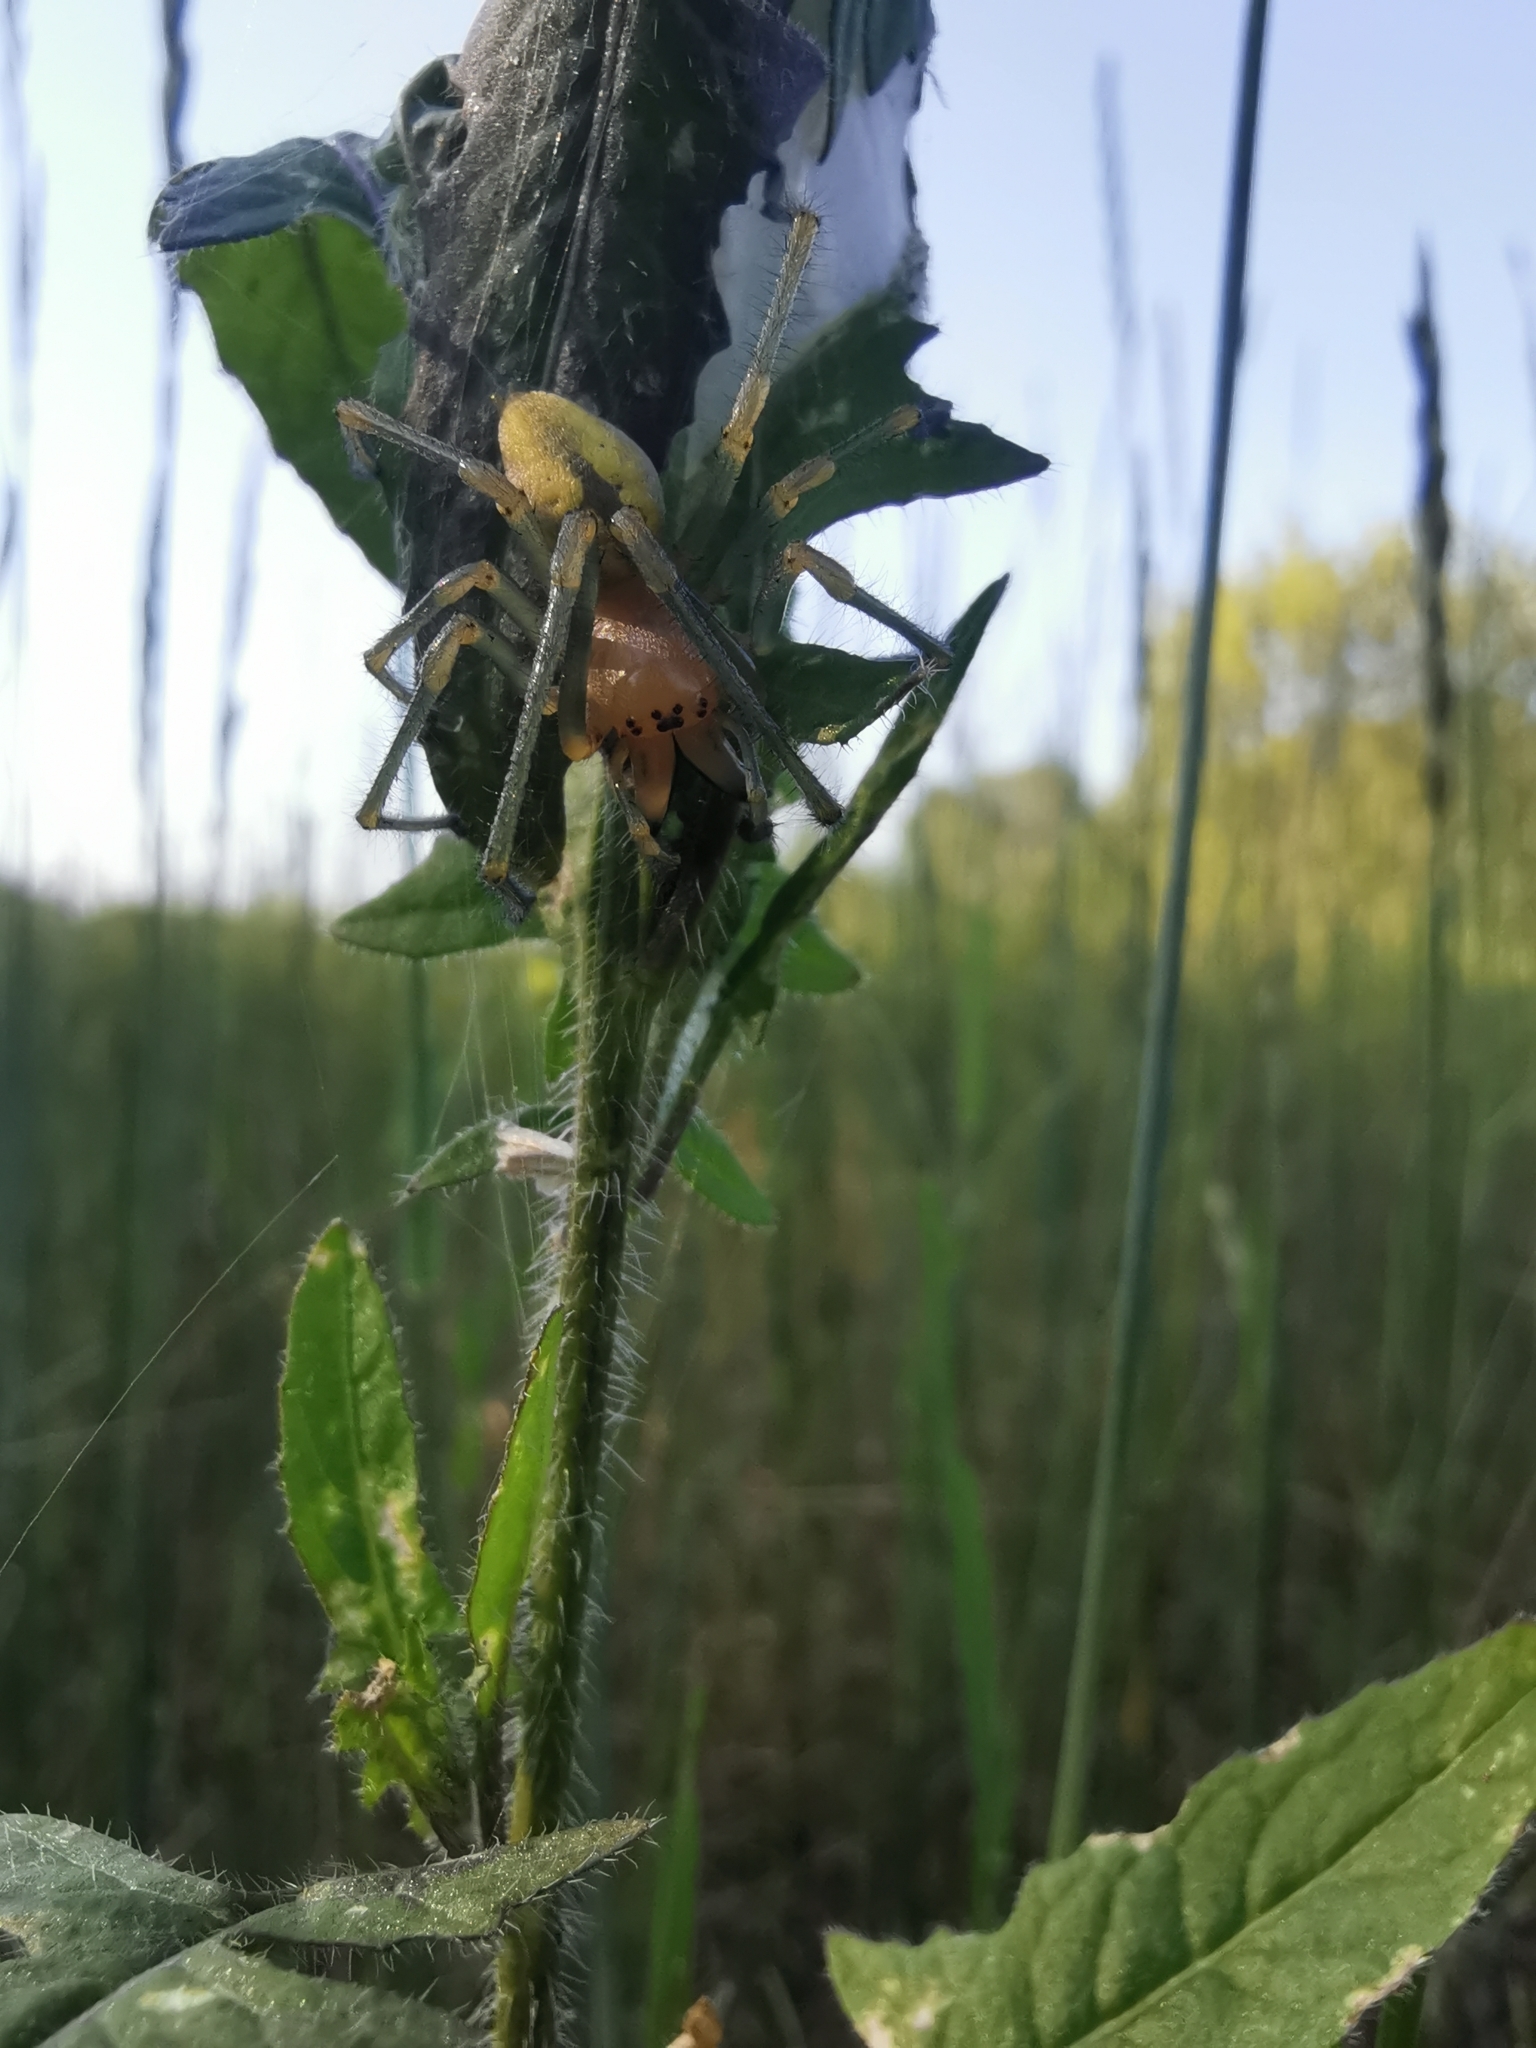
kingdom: Animalia
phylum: Arthropoda
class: Arachnida
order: Araneae
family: Cheiracanthiidae
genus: Cheiracanthium
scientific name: Cheiracanthium punctorium
